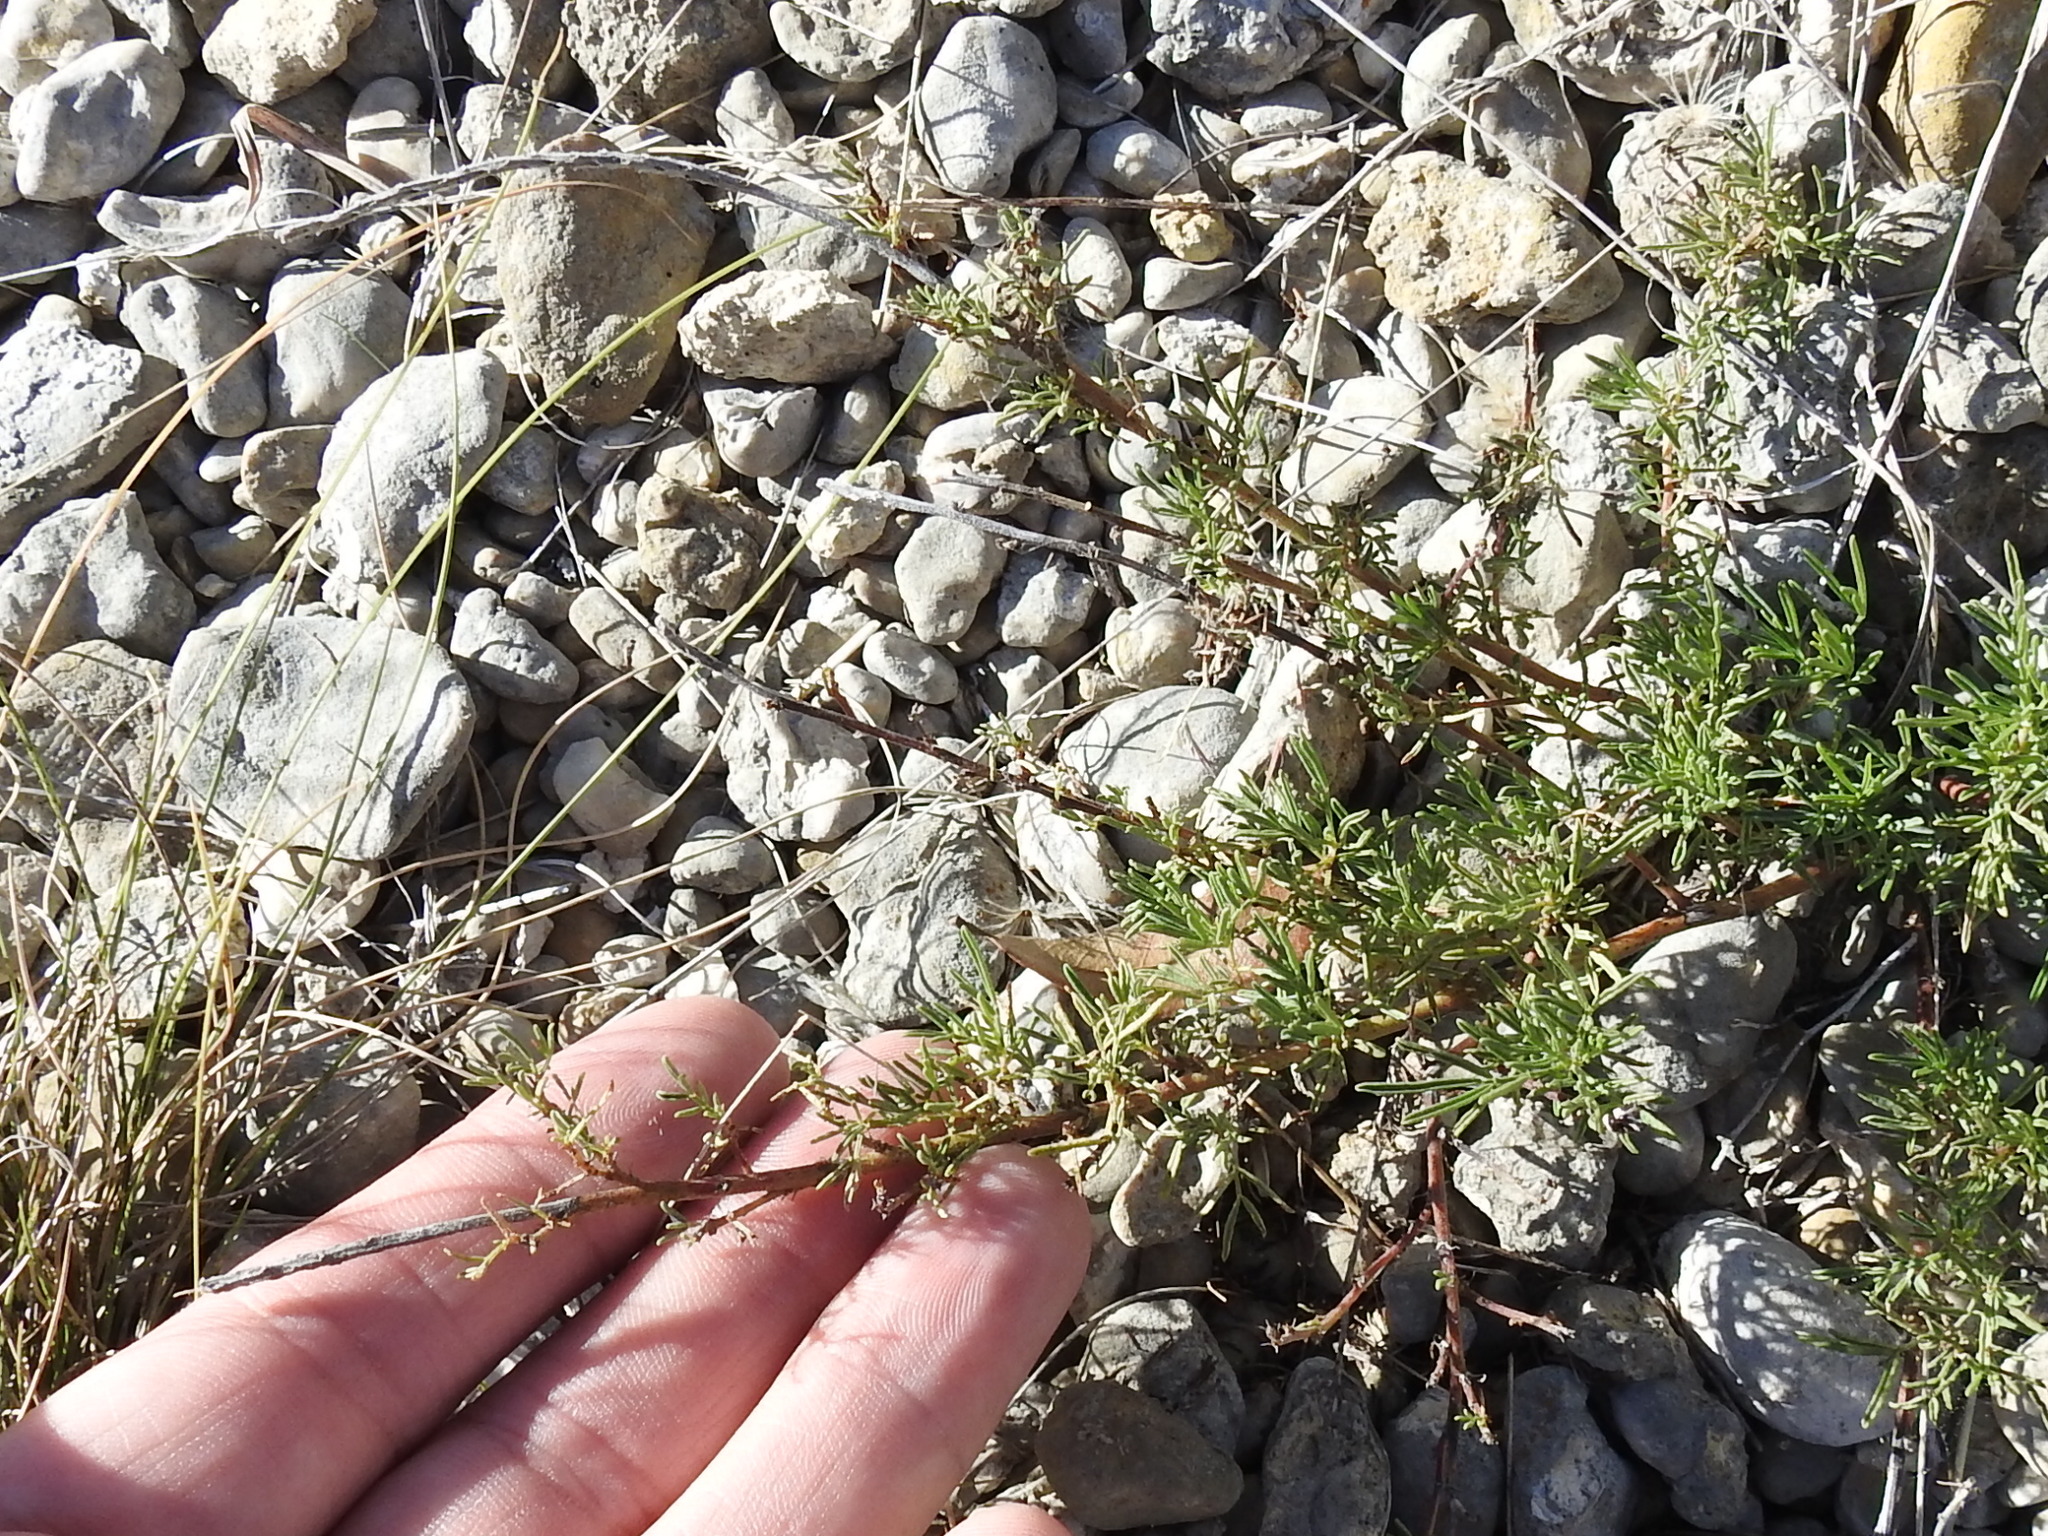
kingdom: Plantae
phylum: Tracheophyta
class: Magnoliopsida
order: Fabales
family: Fabaceae
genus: Dalea
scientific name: Dalea reverchonii
